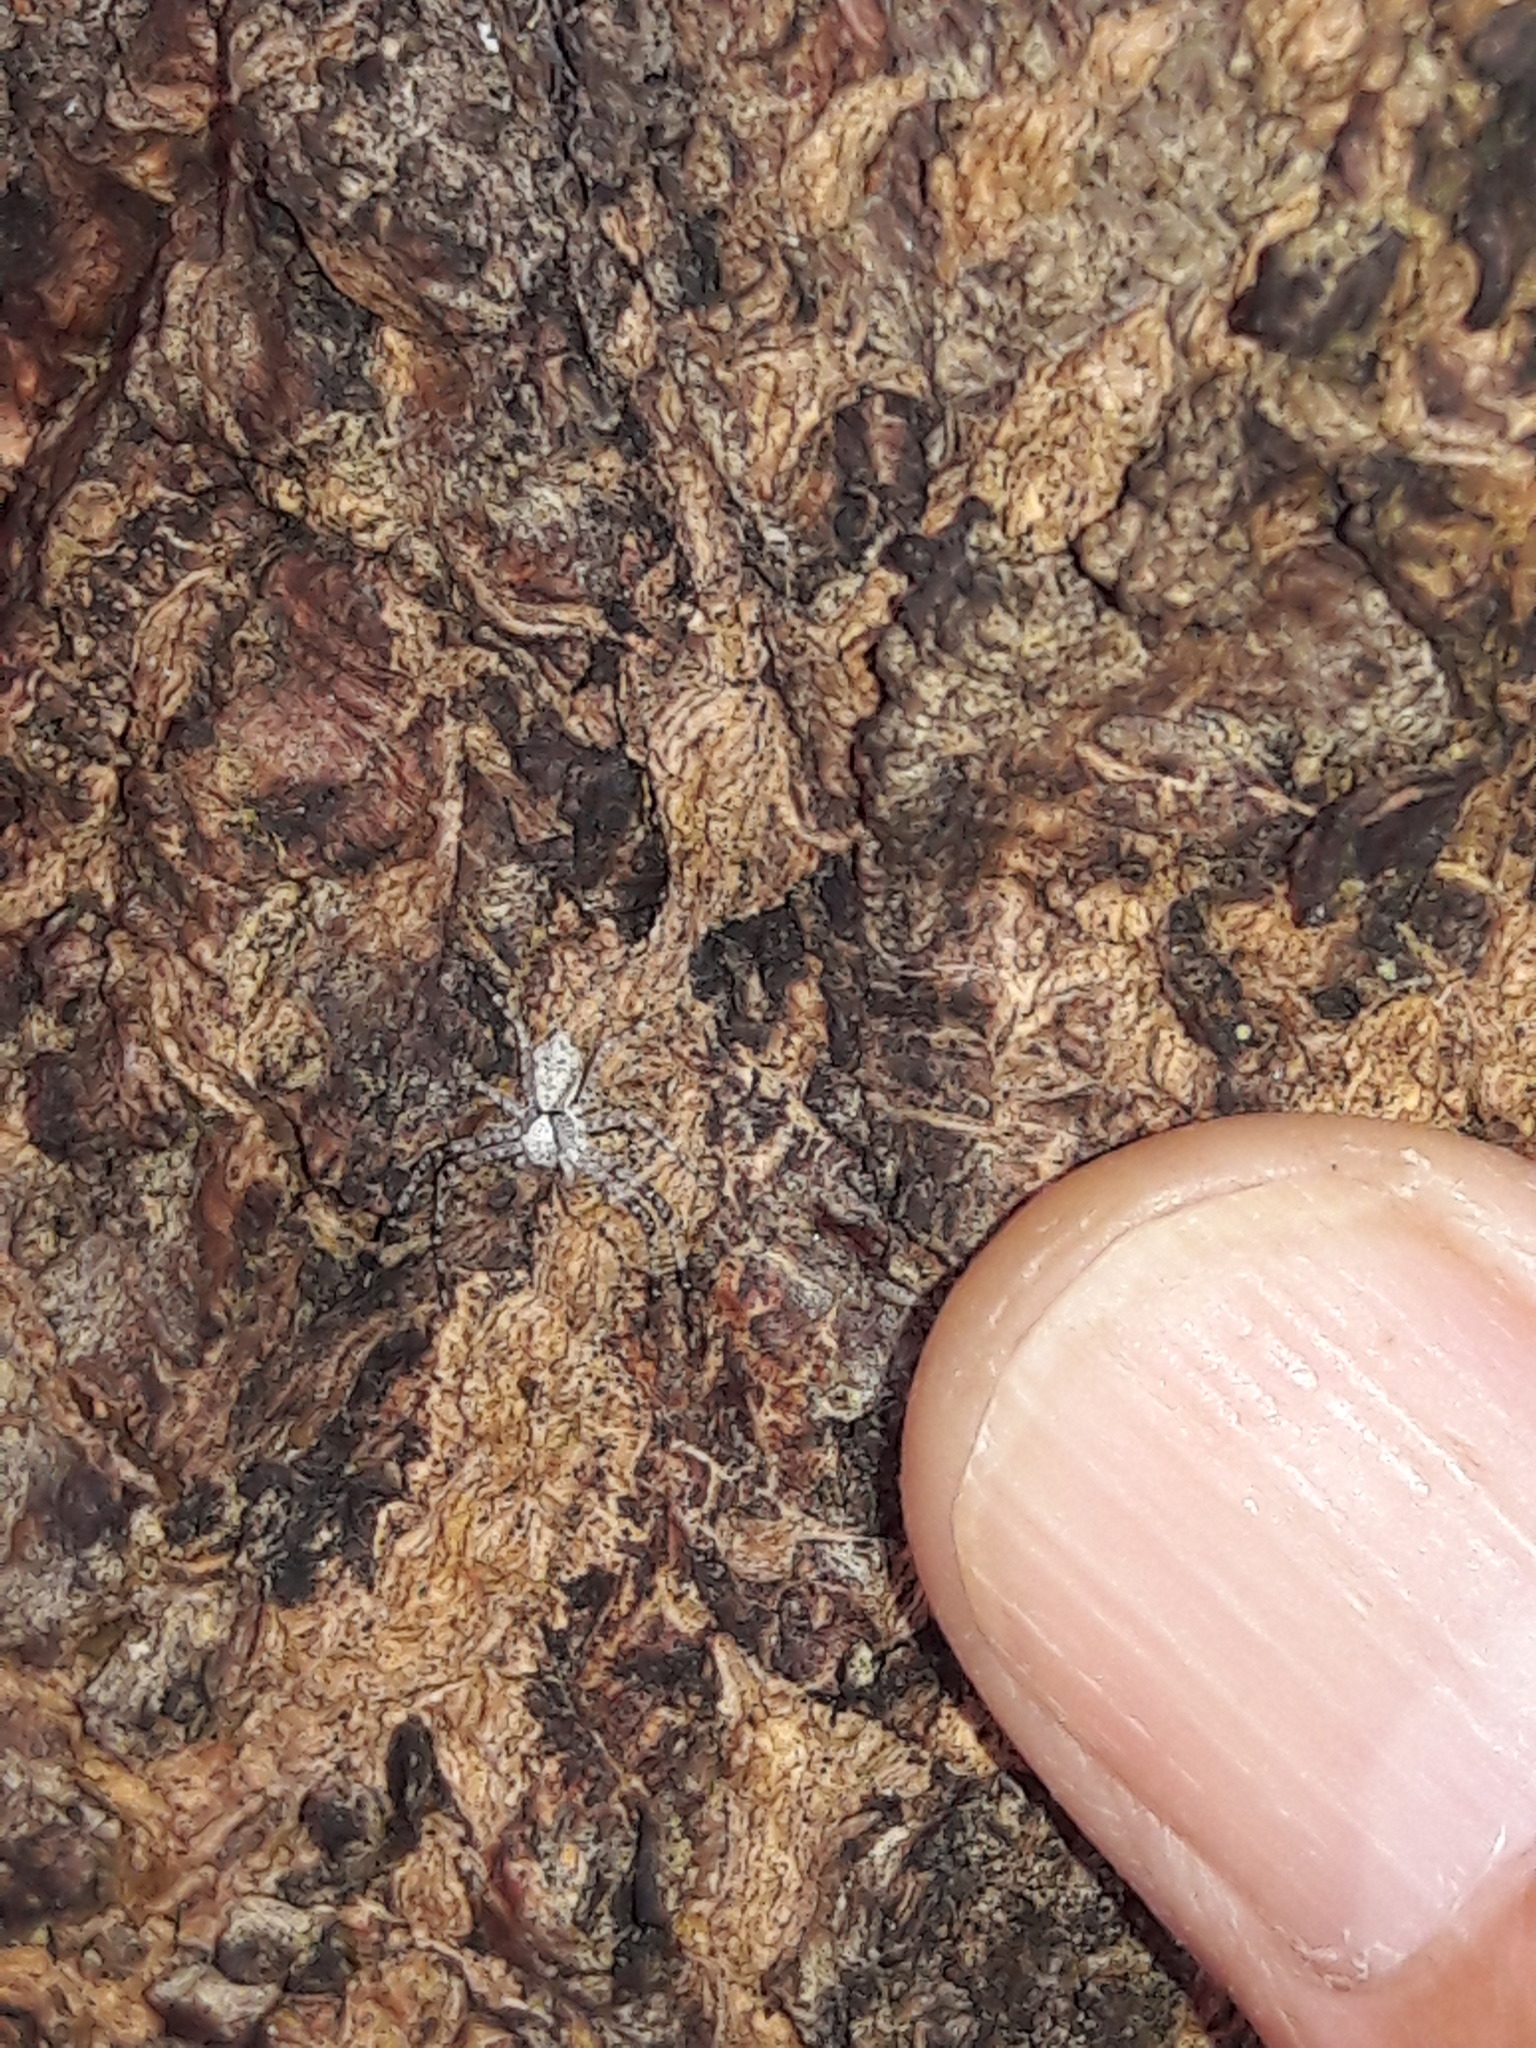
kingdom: Animalia
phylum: Arthropoda
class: Arachnida
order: Araneae
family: Thomisidae
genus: Metadiaea
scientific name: Metadiaea fidelis
